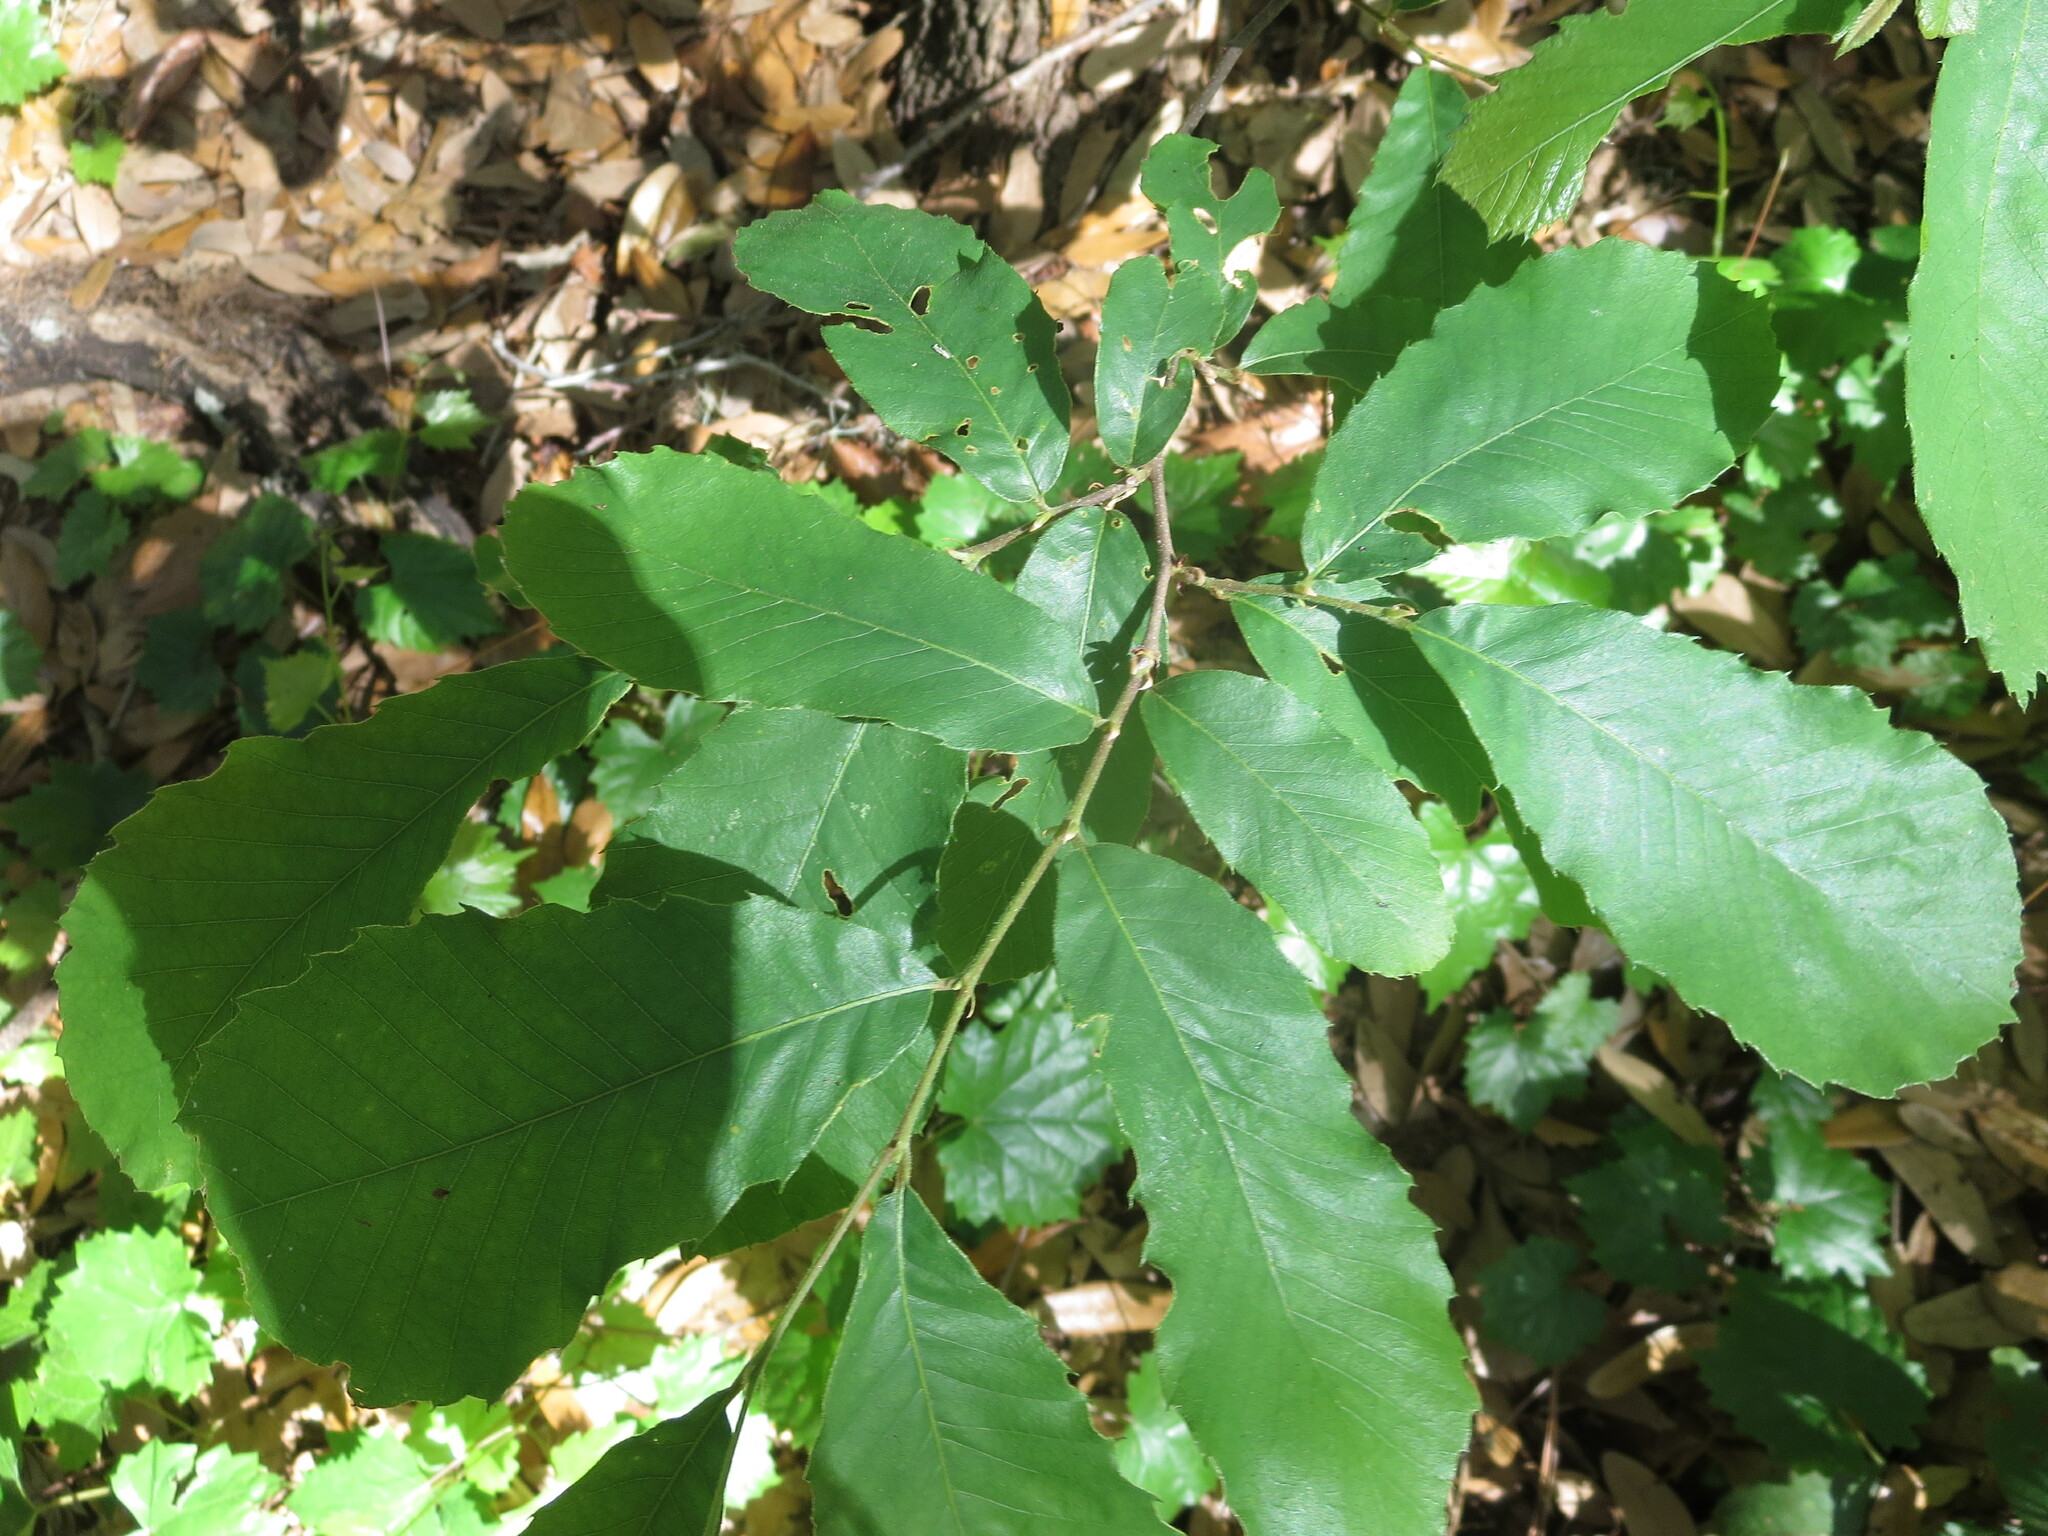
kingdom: Plantae
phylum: Tracheophyta
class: Magnoliopsida
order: Fagales
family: Fagaceae
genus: Castanea
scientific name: Castanea pumila
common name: Chinkapin
